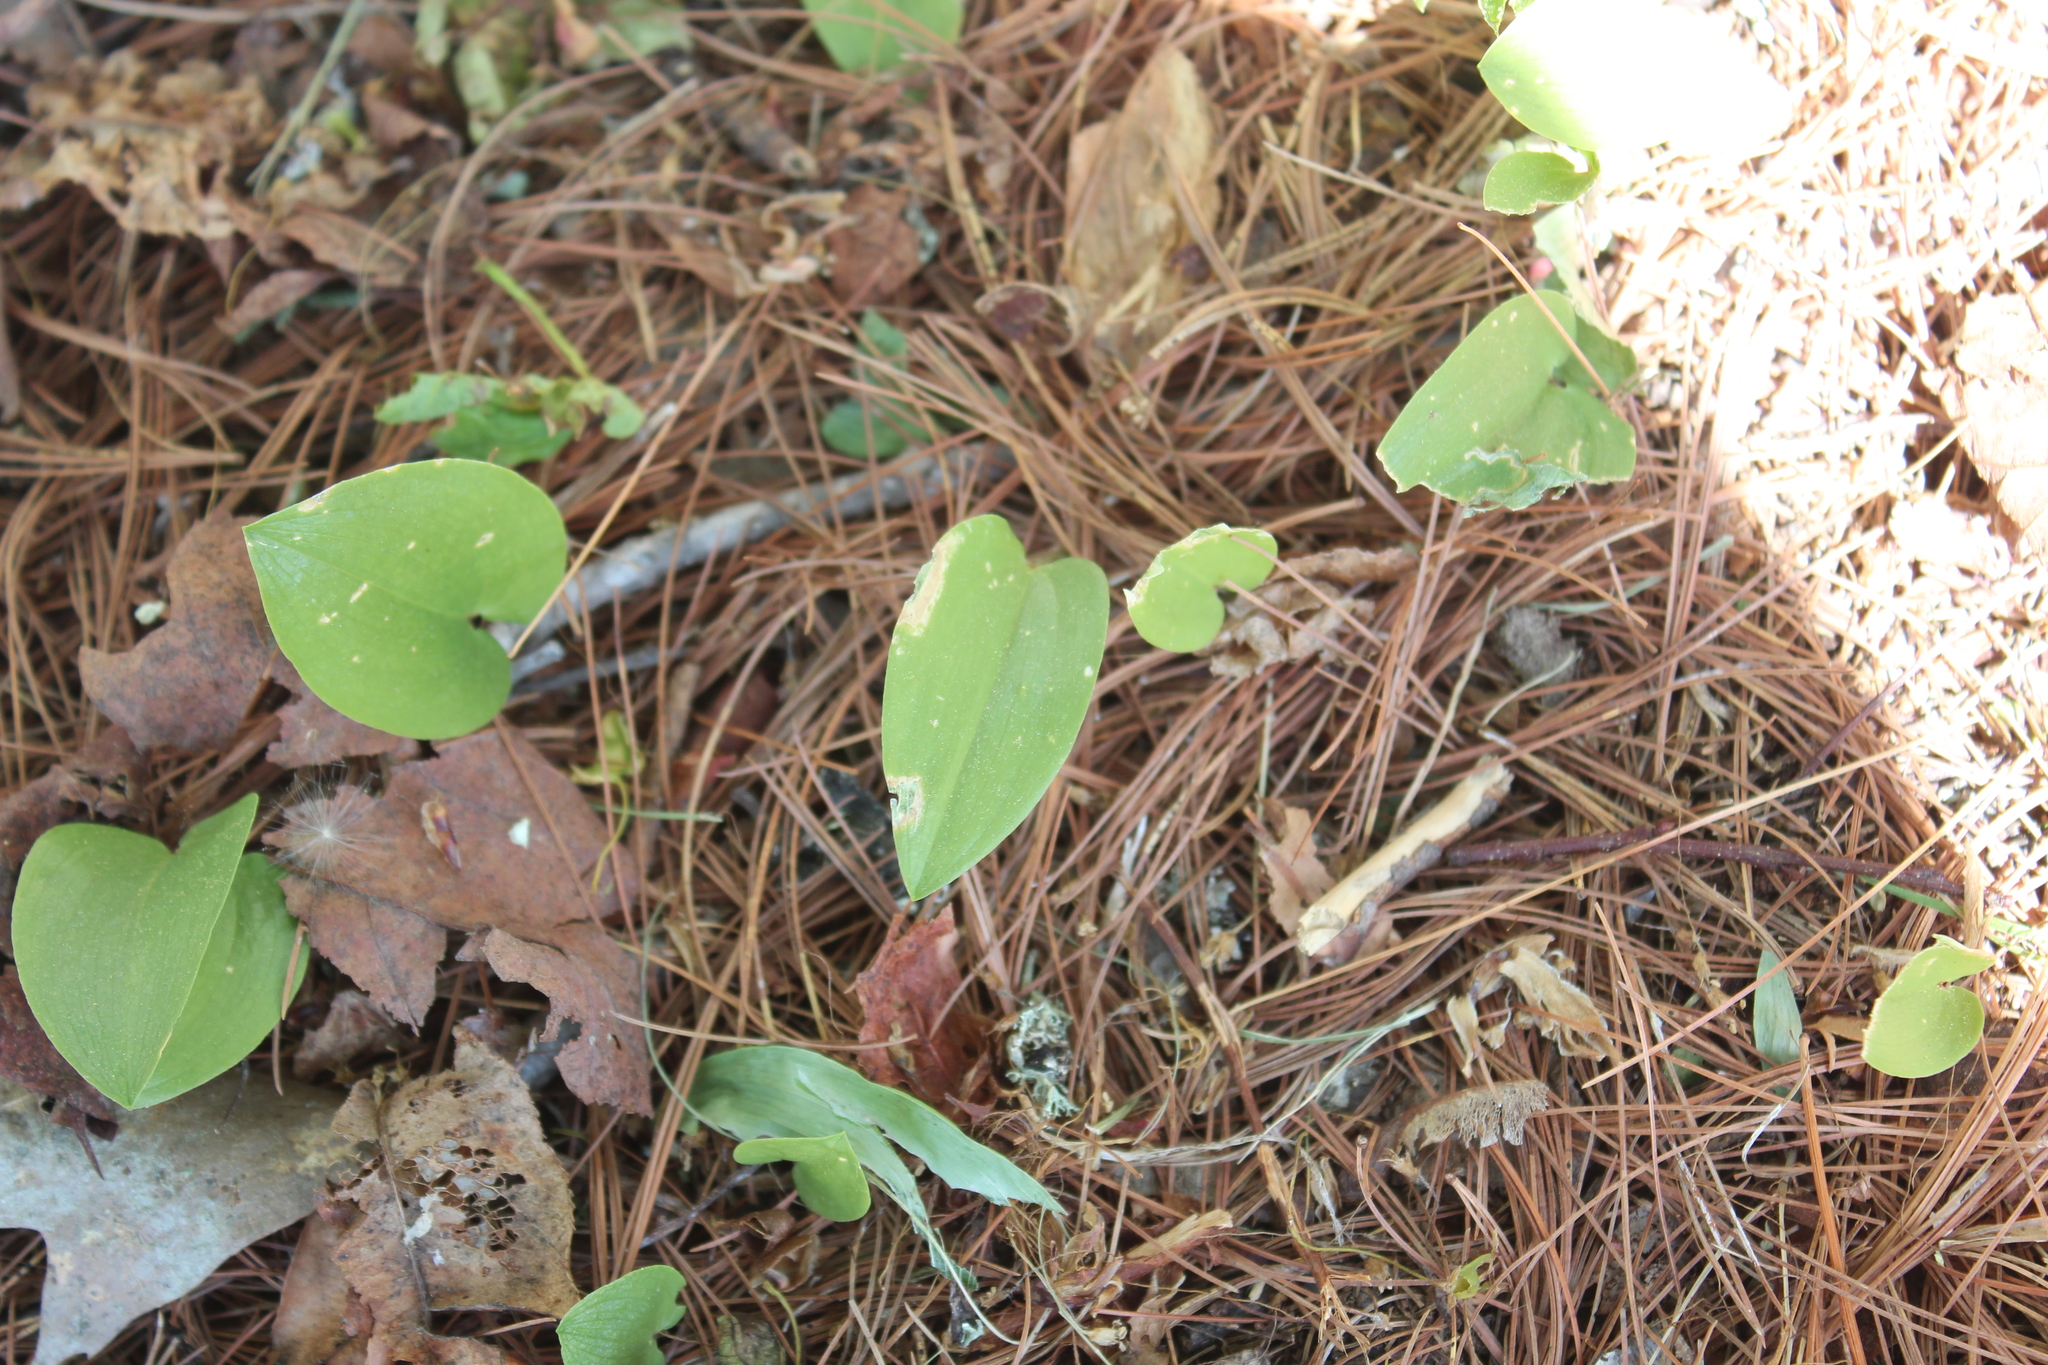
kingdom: Plantae
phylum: Tracheophyta
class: Liliopsida
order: Asparagales
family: Asparagaceae
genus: Maianthemum
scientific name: Maianthemum canadense
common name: False lily-of-the-valley
